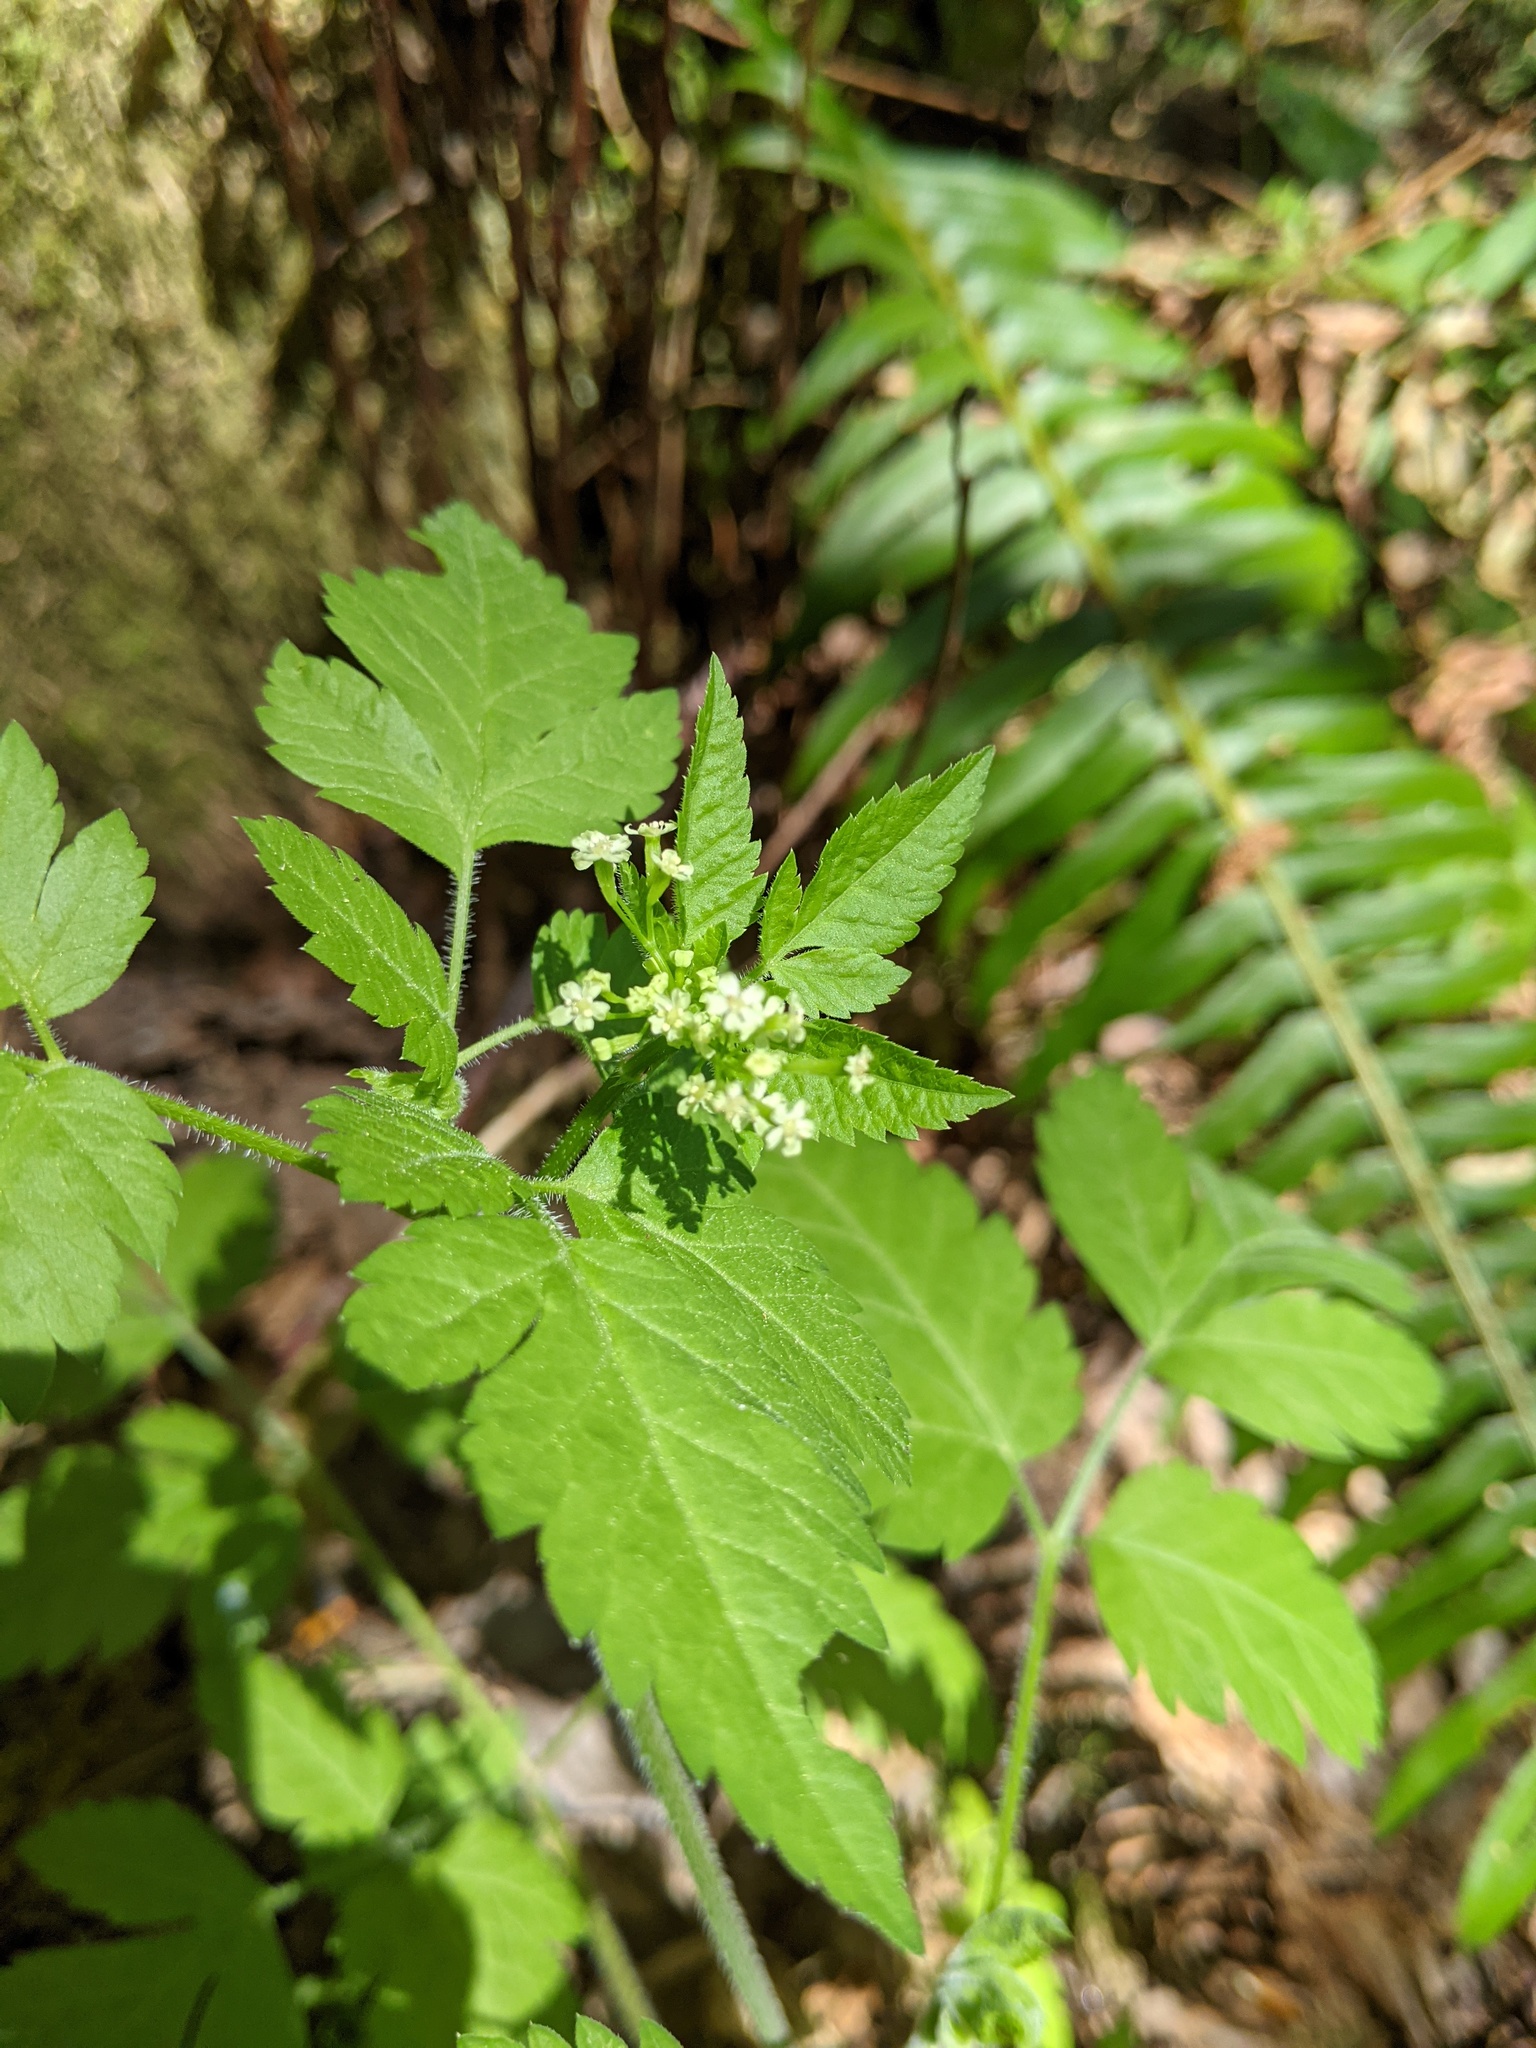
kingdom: Plantae
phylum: Tracheophyta
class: Magnoliopsida
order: Apiales
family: Apiaceae
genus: Osmorhiza
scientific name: Osmorhiza berteroi
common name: Mountain sweet cicely
